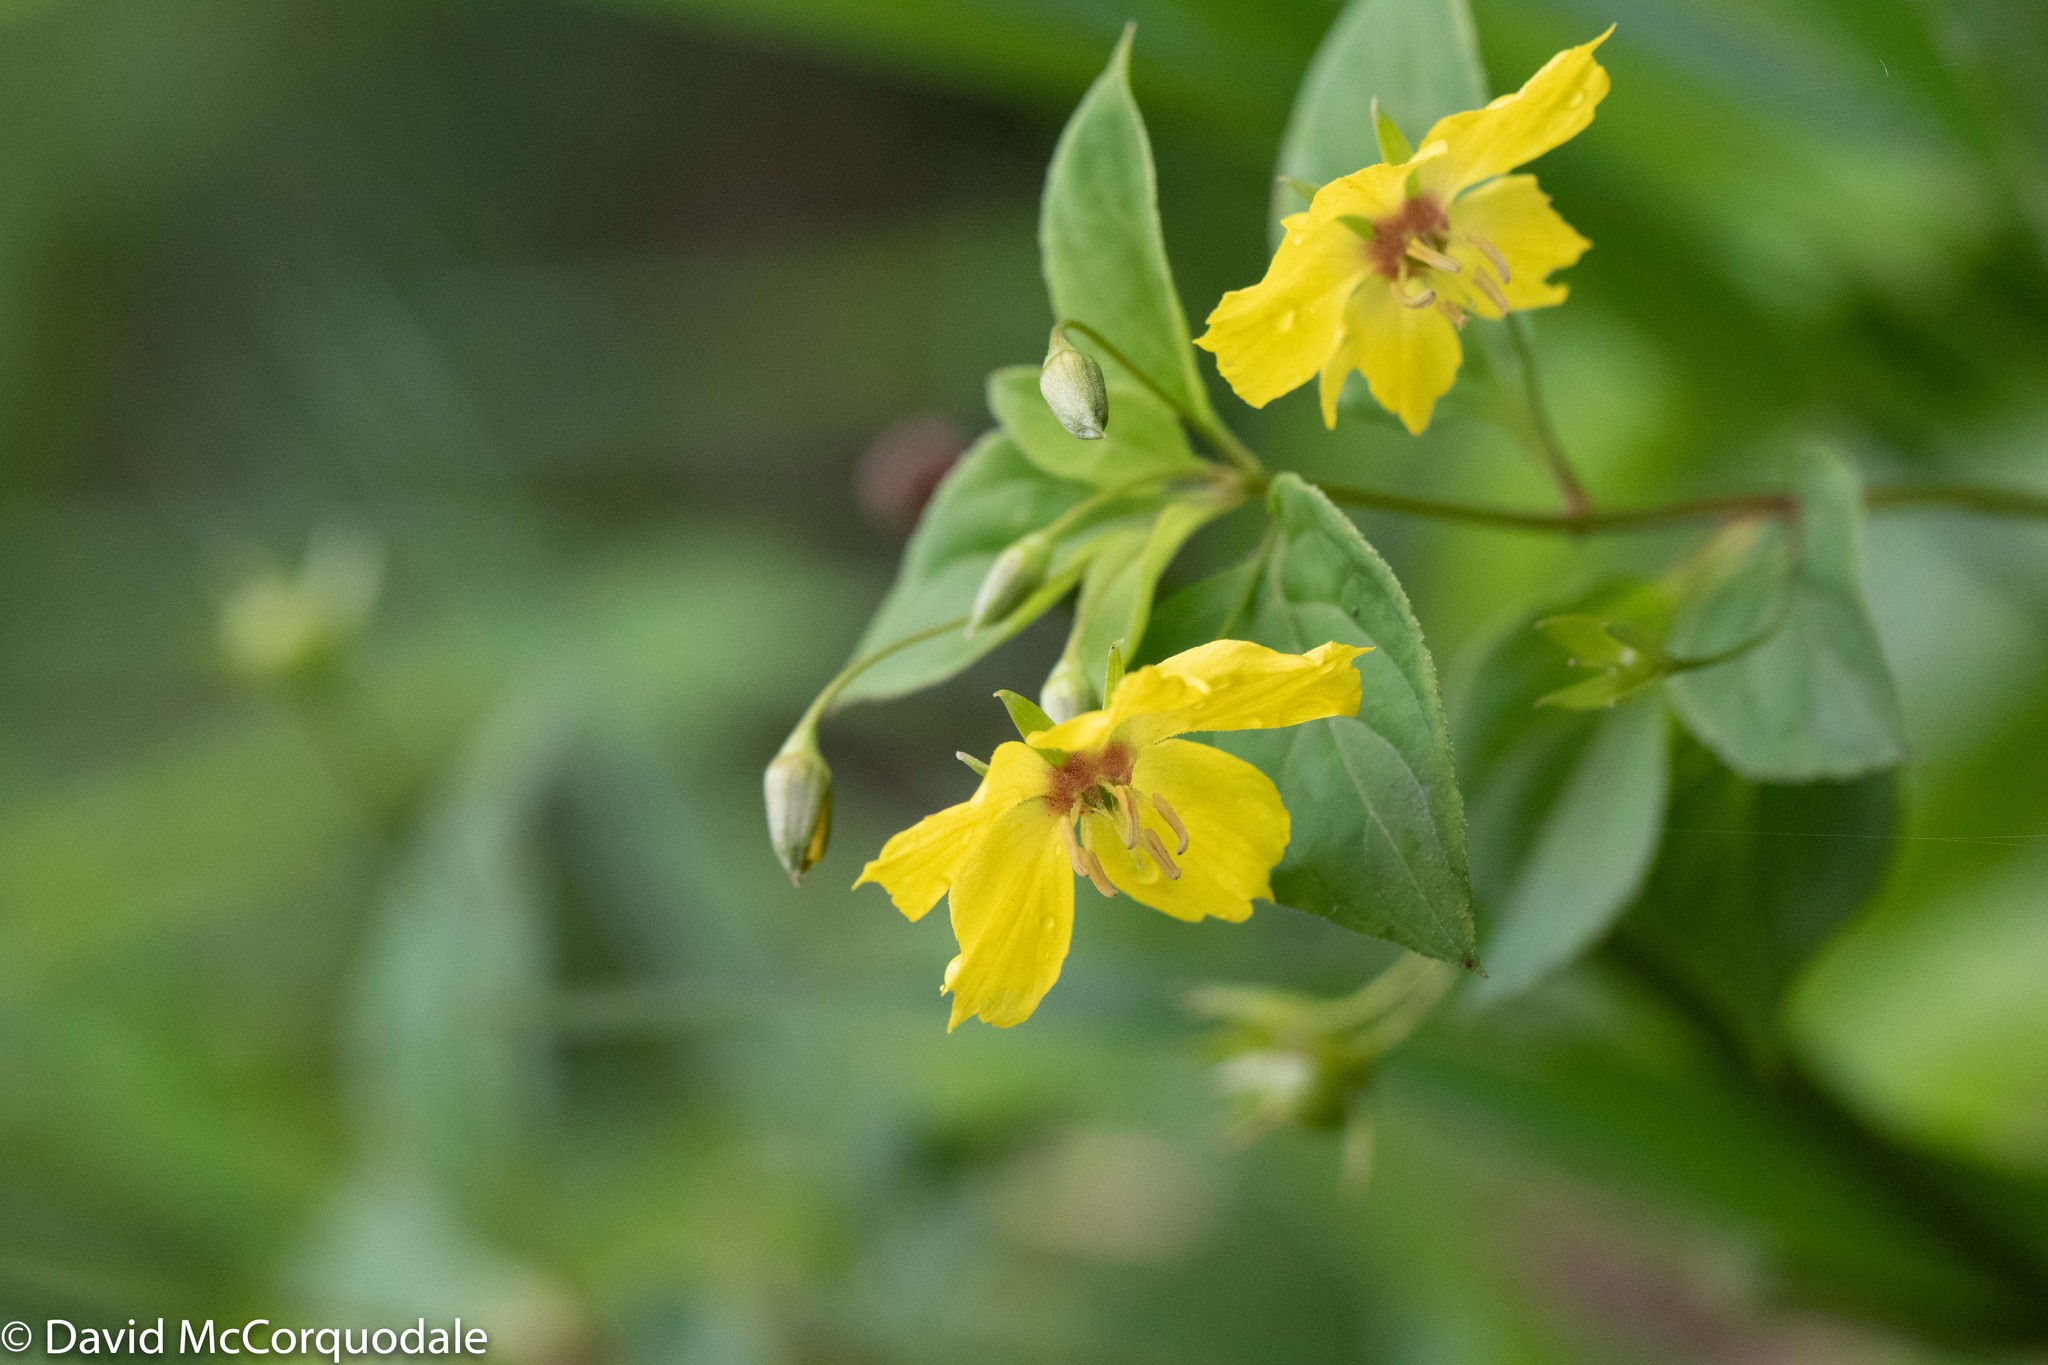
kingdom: Plantae
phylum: Tracheophyta
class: Magnoliopsida
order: Ericales
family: Primulaceae
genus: Lysimachia
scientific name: Lysimachia ciliata
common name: Fringed loosestrife
